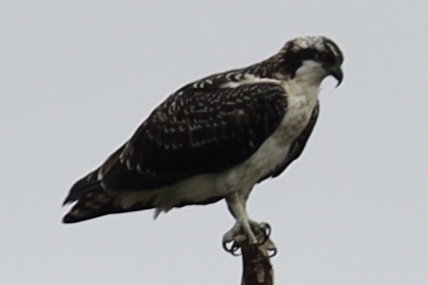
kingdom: Animalia
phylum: Chordata
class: Aves
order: Accipitriformes
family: Pandionidae
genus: Pandion
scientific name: Pandion haliaetus
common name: Osprey
